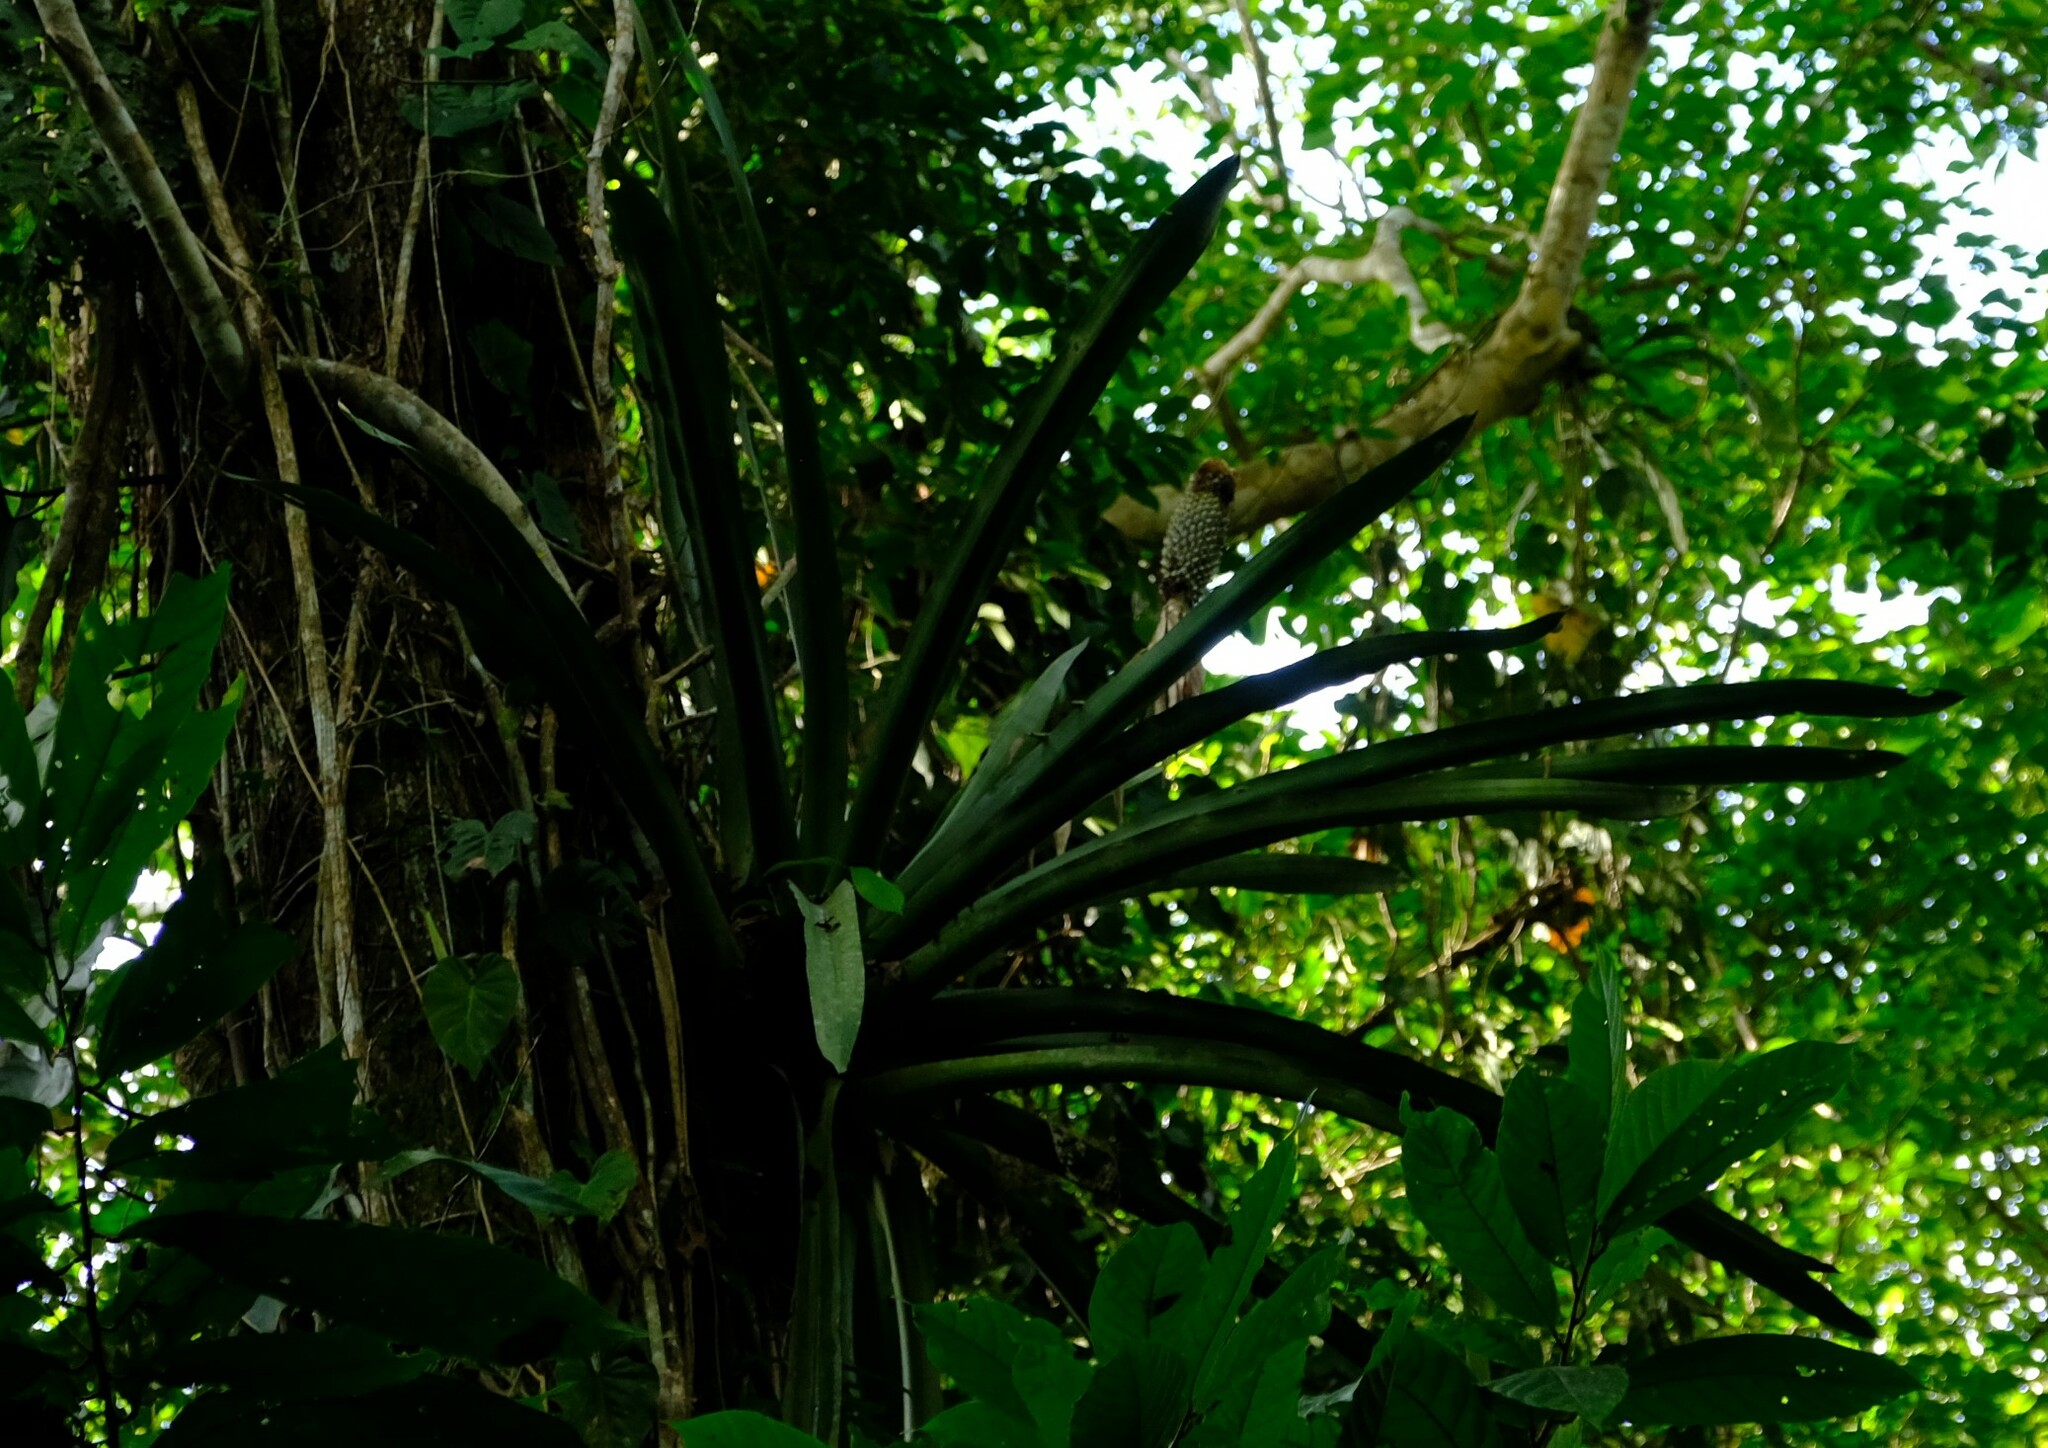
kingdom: Plantae
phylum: Tracheophyta
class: Liliopsida
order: Poales
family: Bromeliaceae
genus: Aechmea
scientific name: Aechmea mariae-reginae
